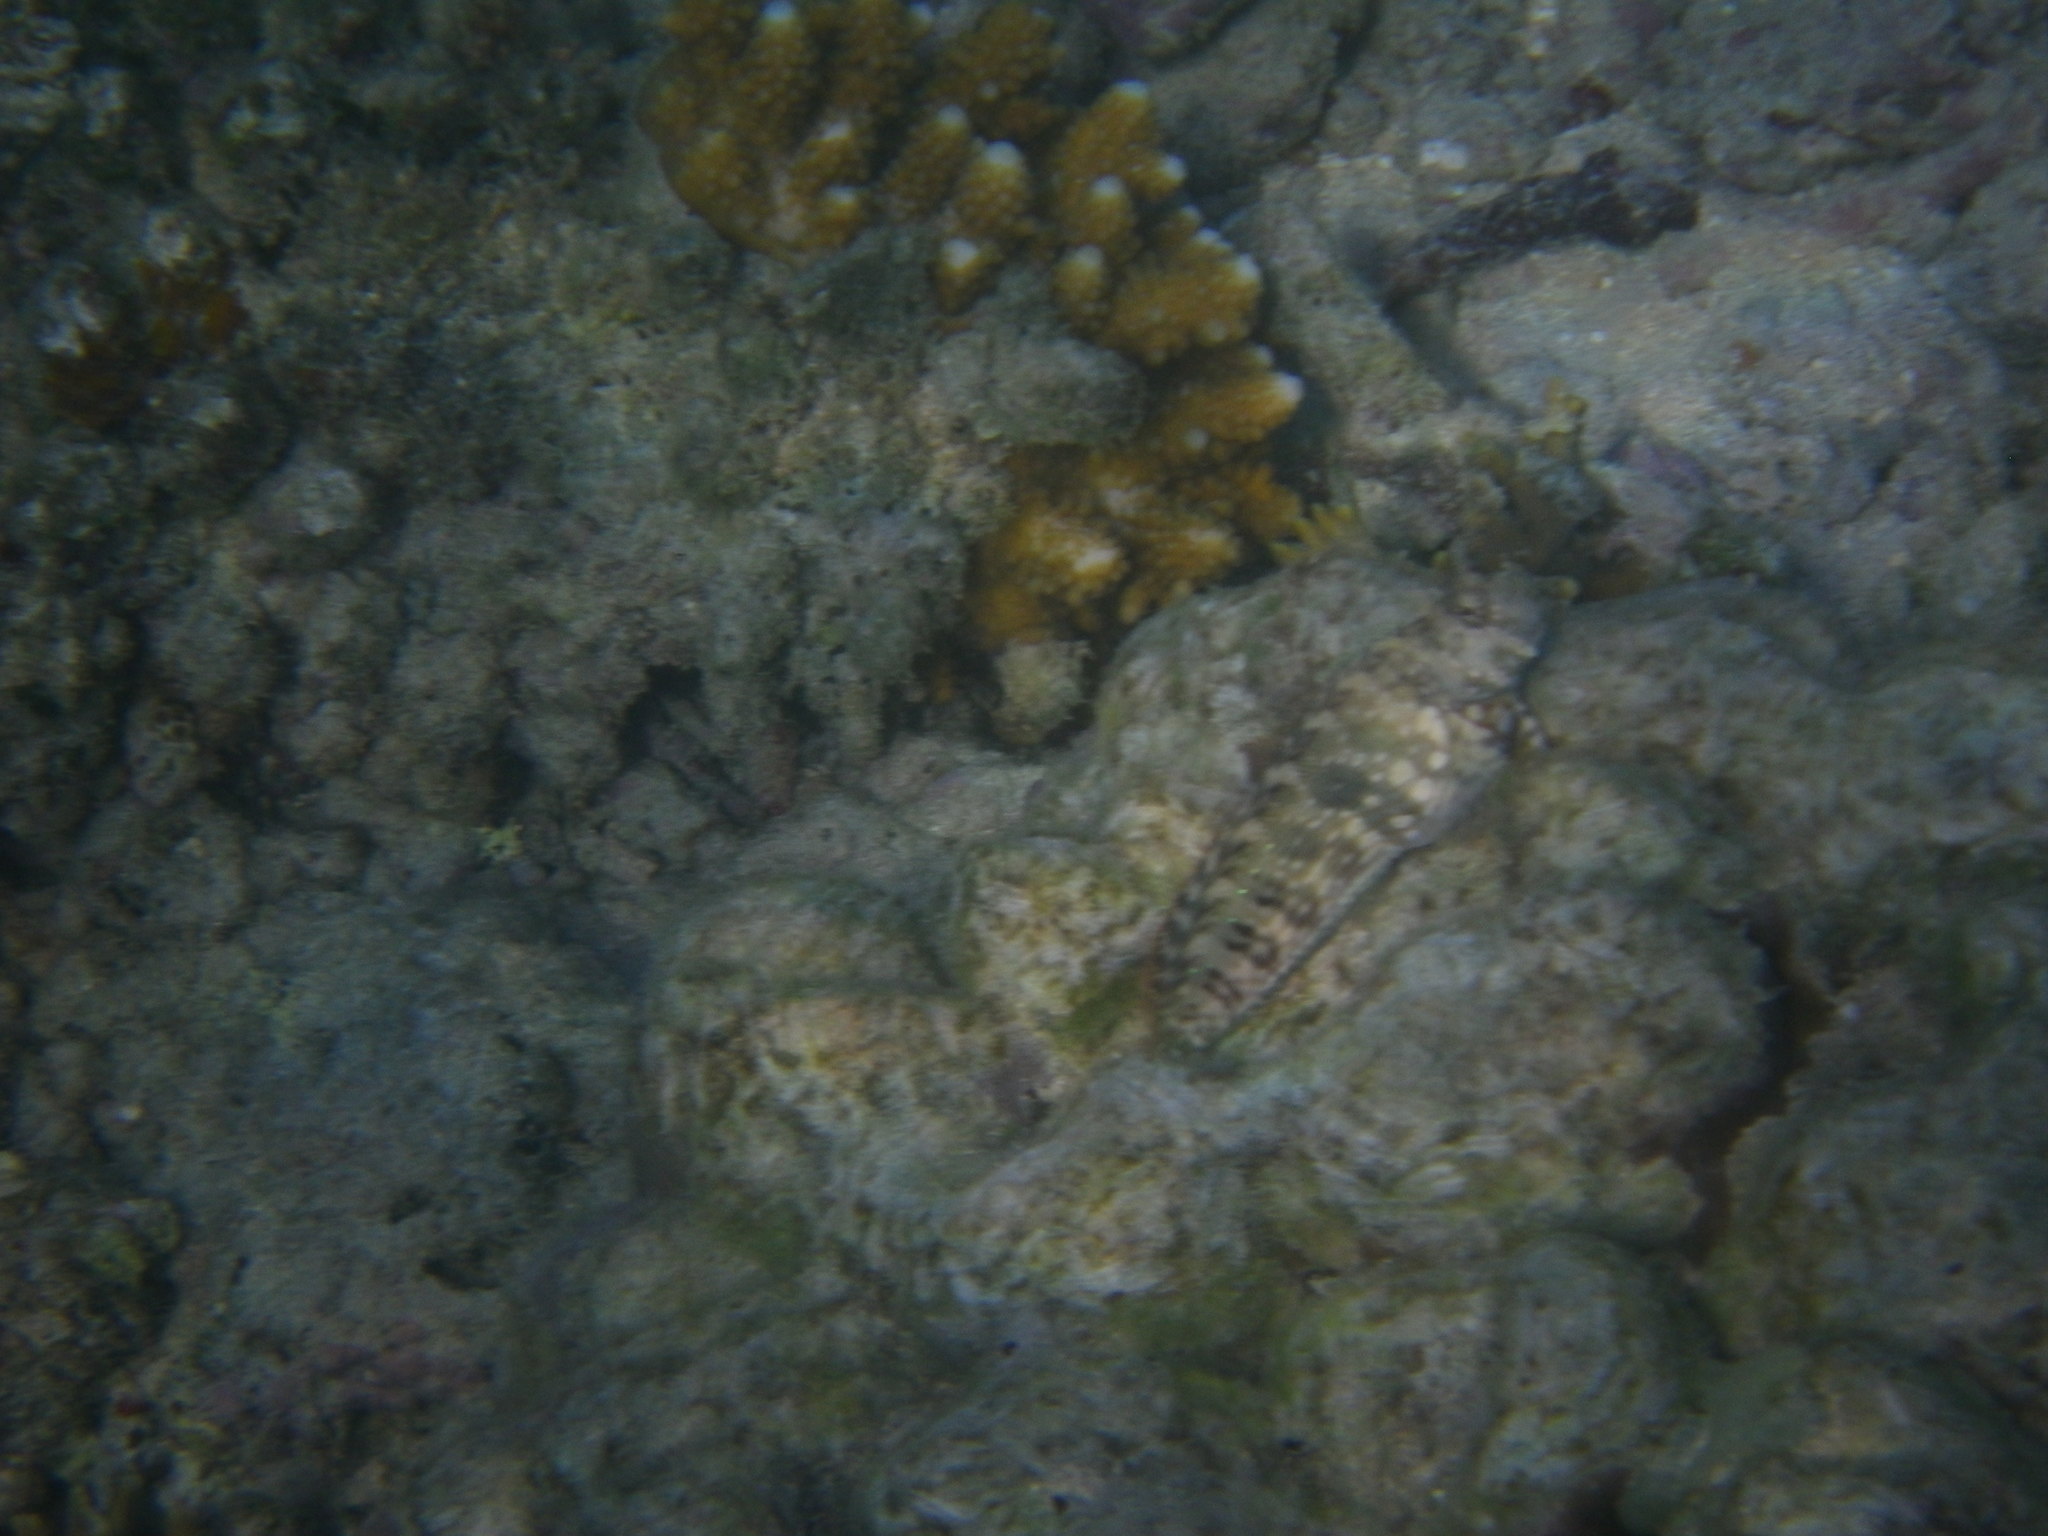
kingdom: Animalia
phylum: Chordata
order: Perciformes
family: Blenniidae
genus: Salarias
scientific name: Salarias fasciatus
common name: Jewelled blenny
